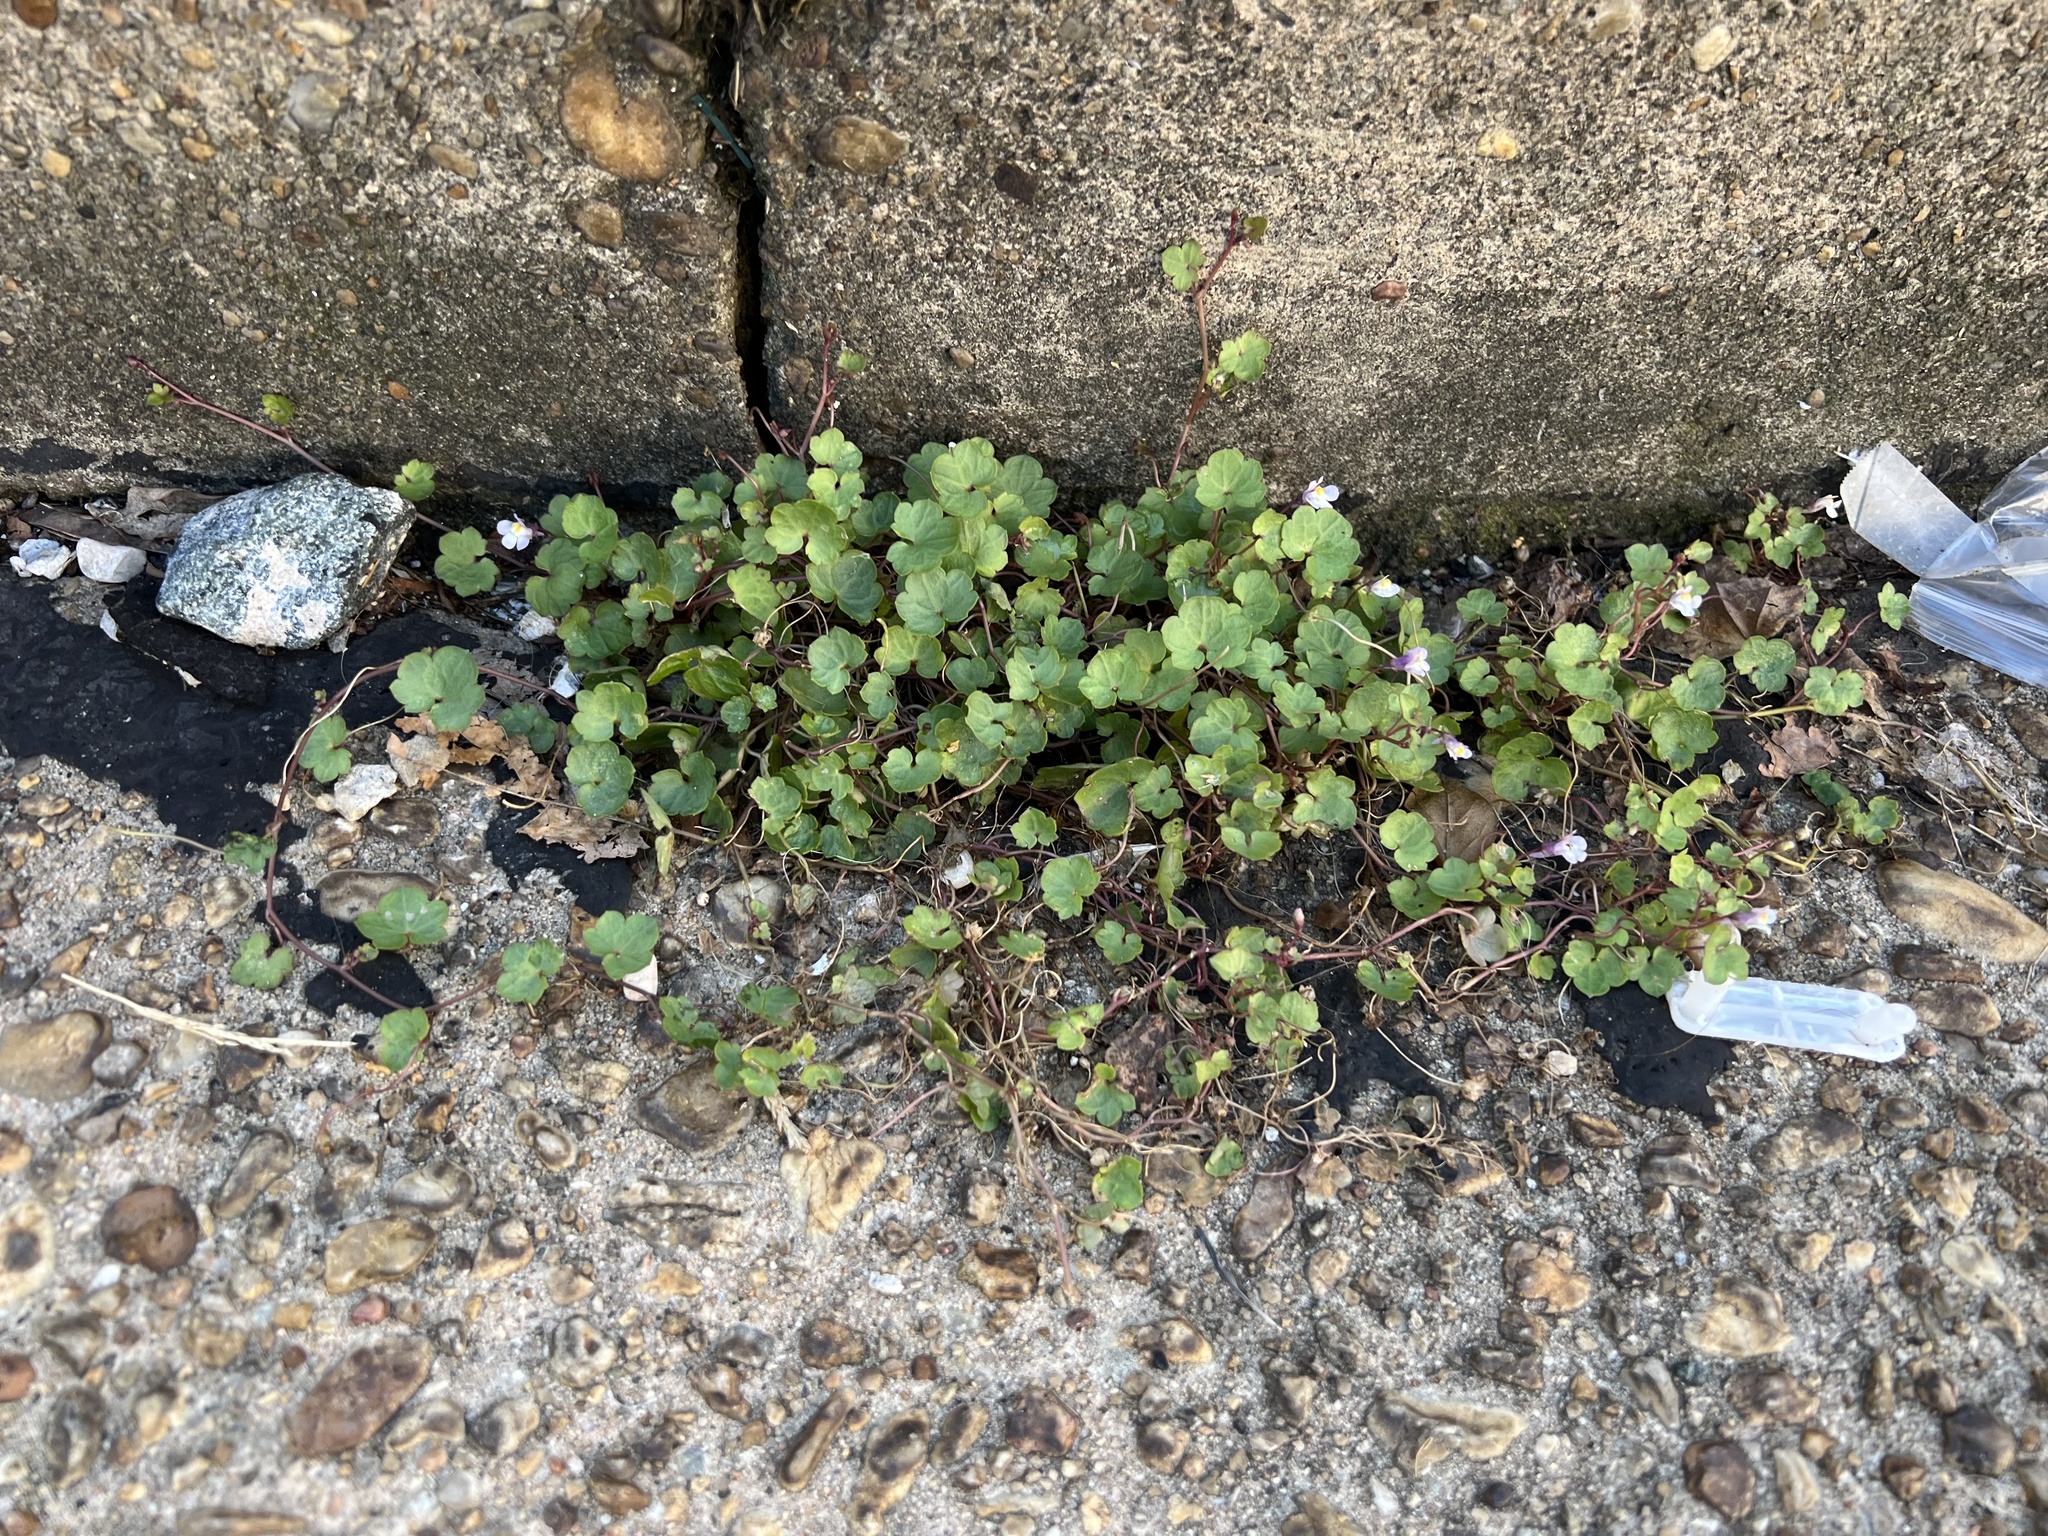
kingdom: Plantae
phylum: Tracheophyta
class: Magnoliopsida
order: Lamiales
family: Plantaginaceae
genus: Cymbalaria
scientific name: Cymbalaria muralis
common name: Ivy-leaved toadflax
